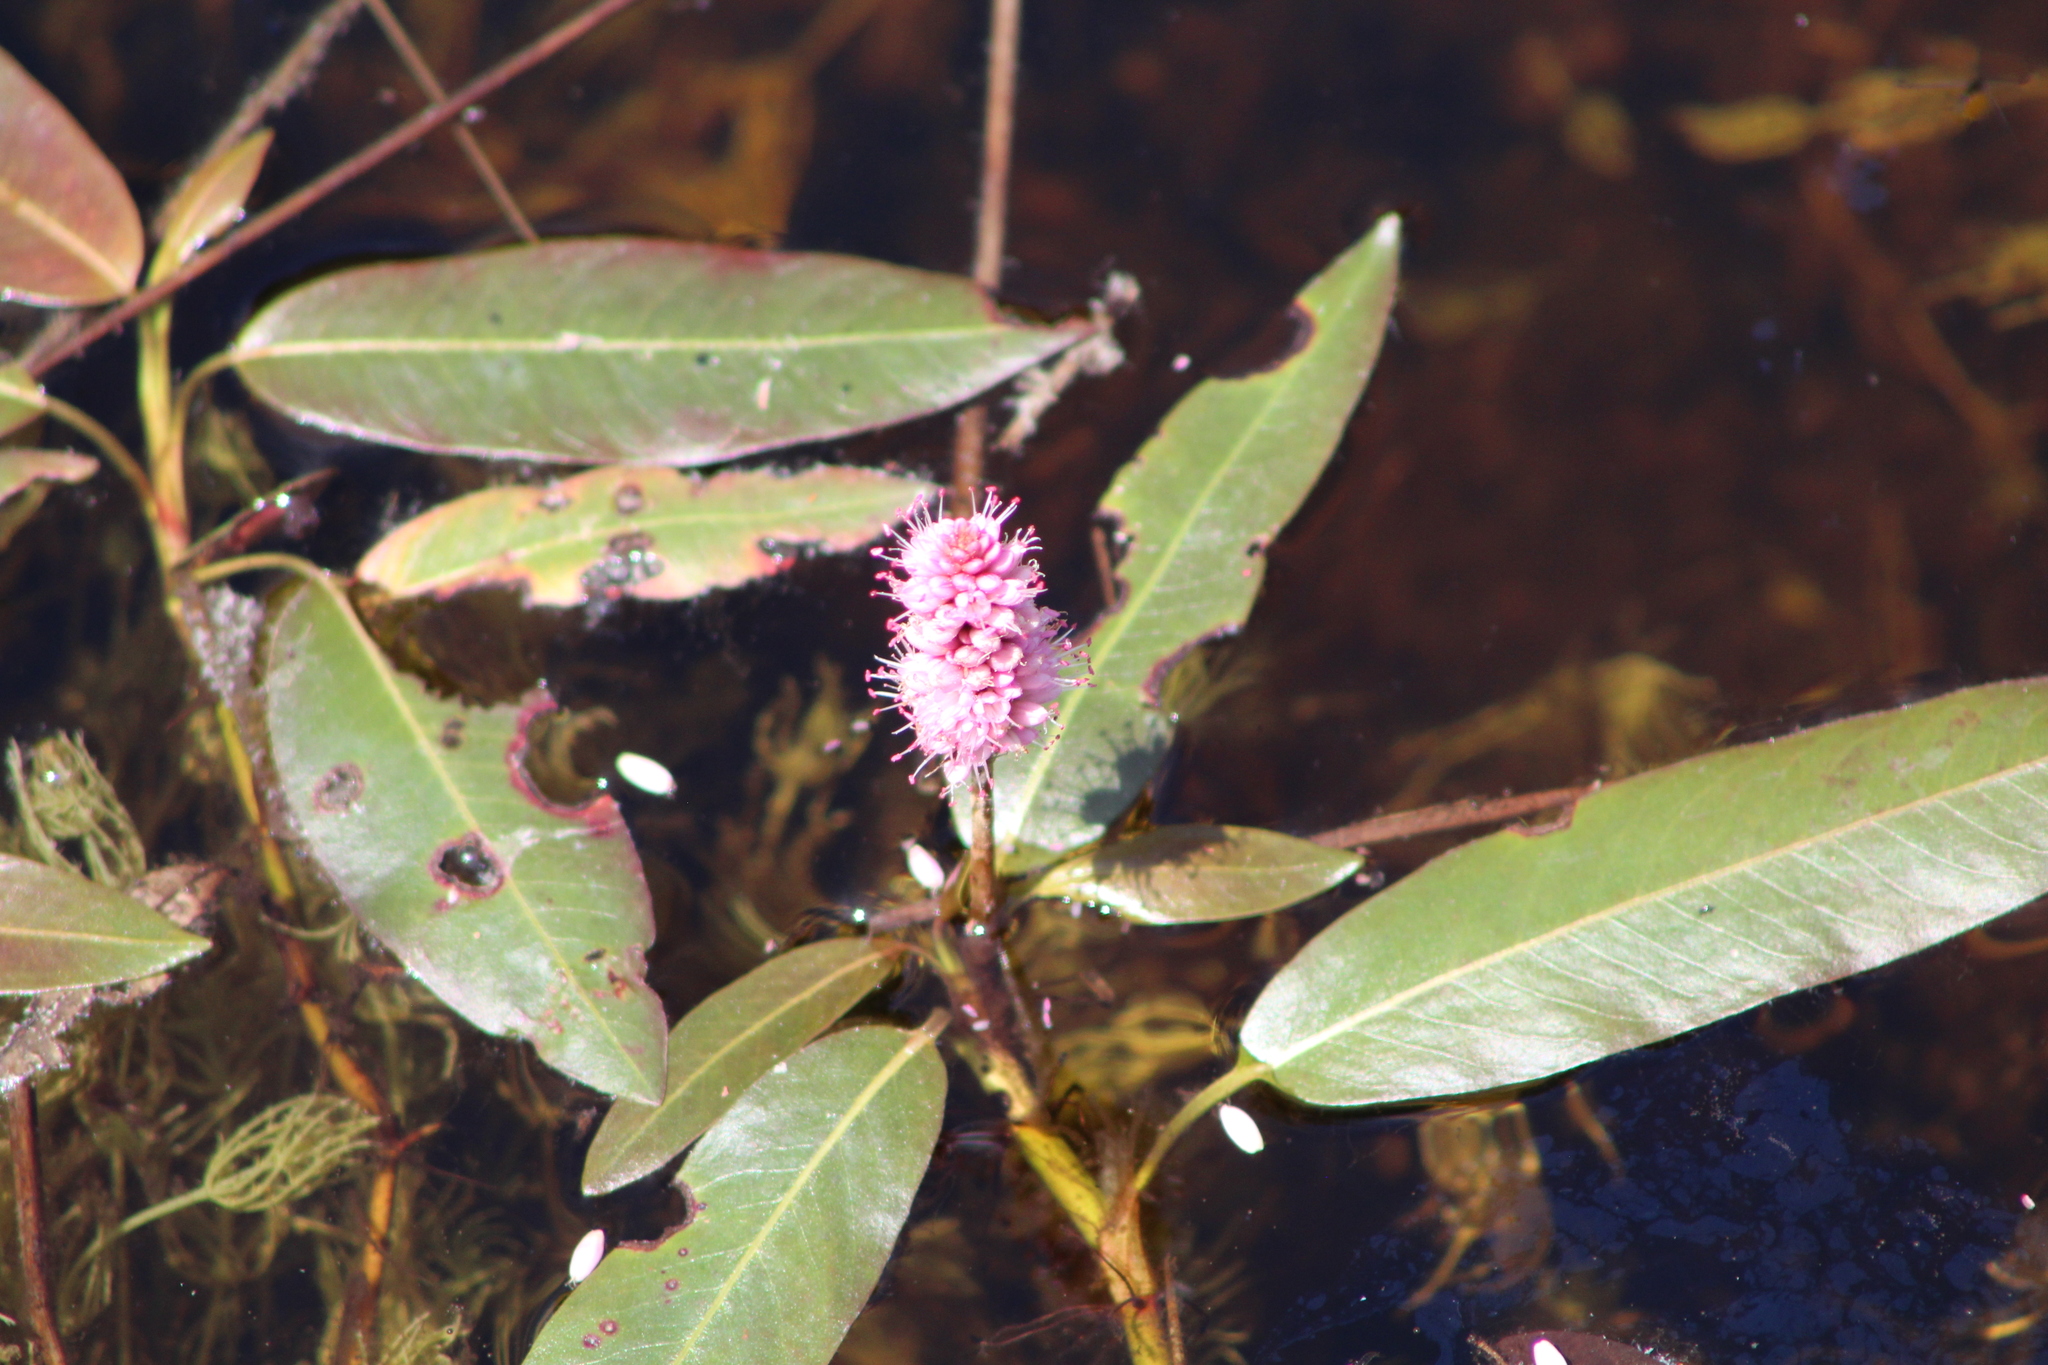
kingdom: Plantae
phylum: Tracheophyta
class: Magnoliopsida
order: Caryophyllales
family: Polygonaceae
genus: Persicaria
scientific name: Persicaria amphibia
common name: Amphibious bistort
